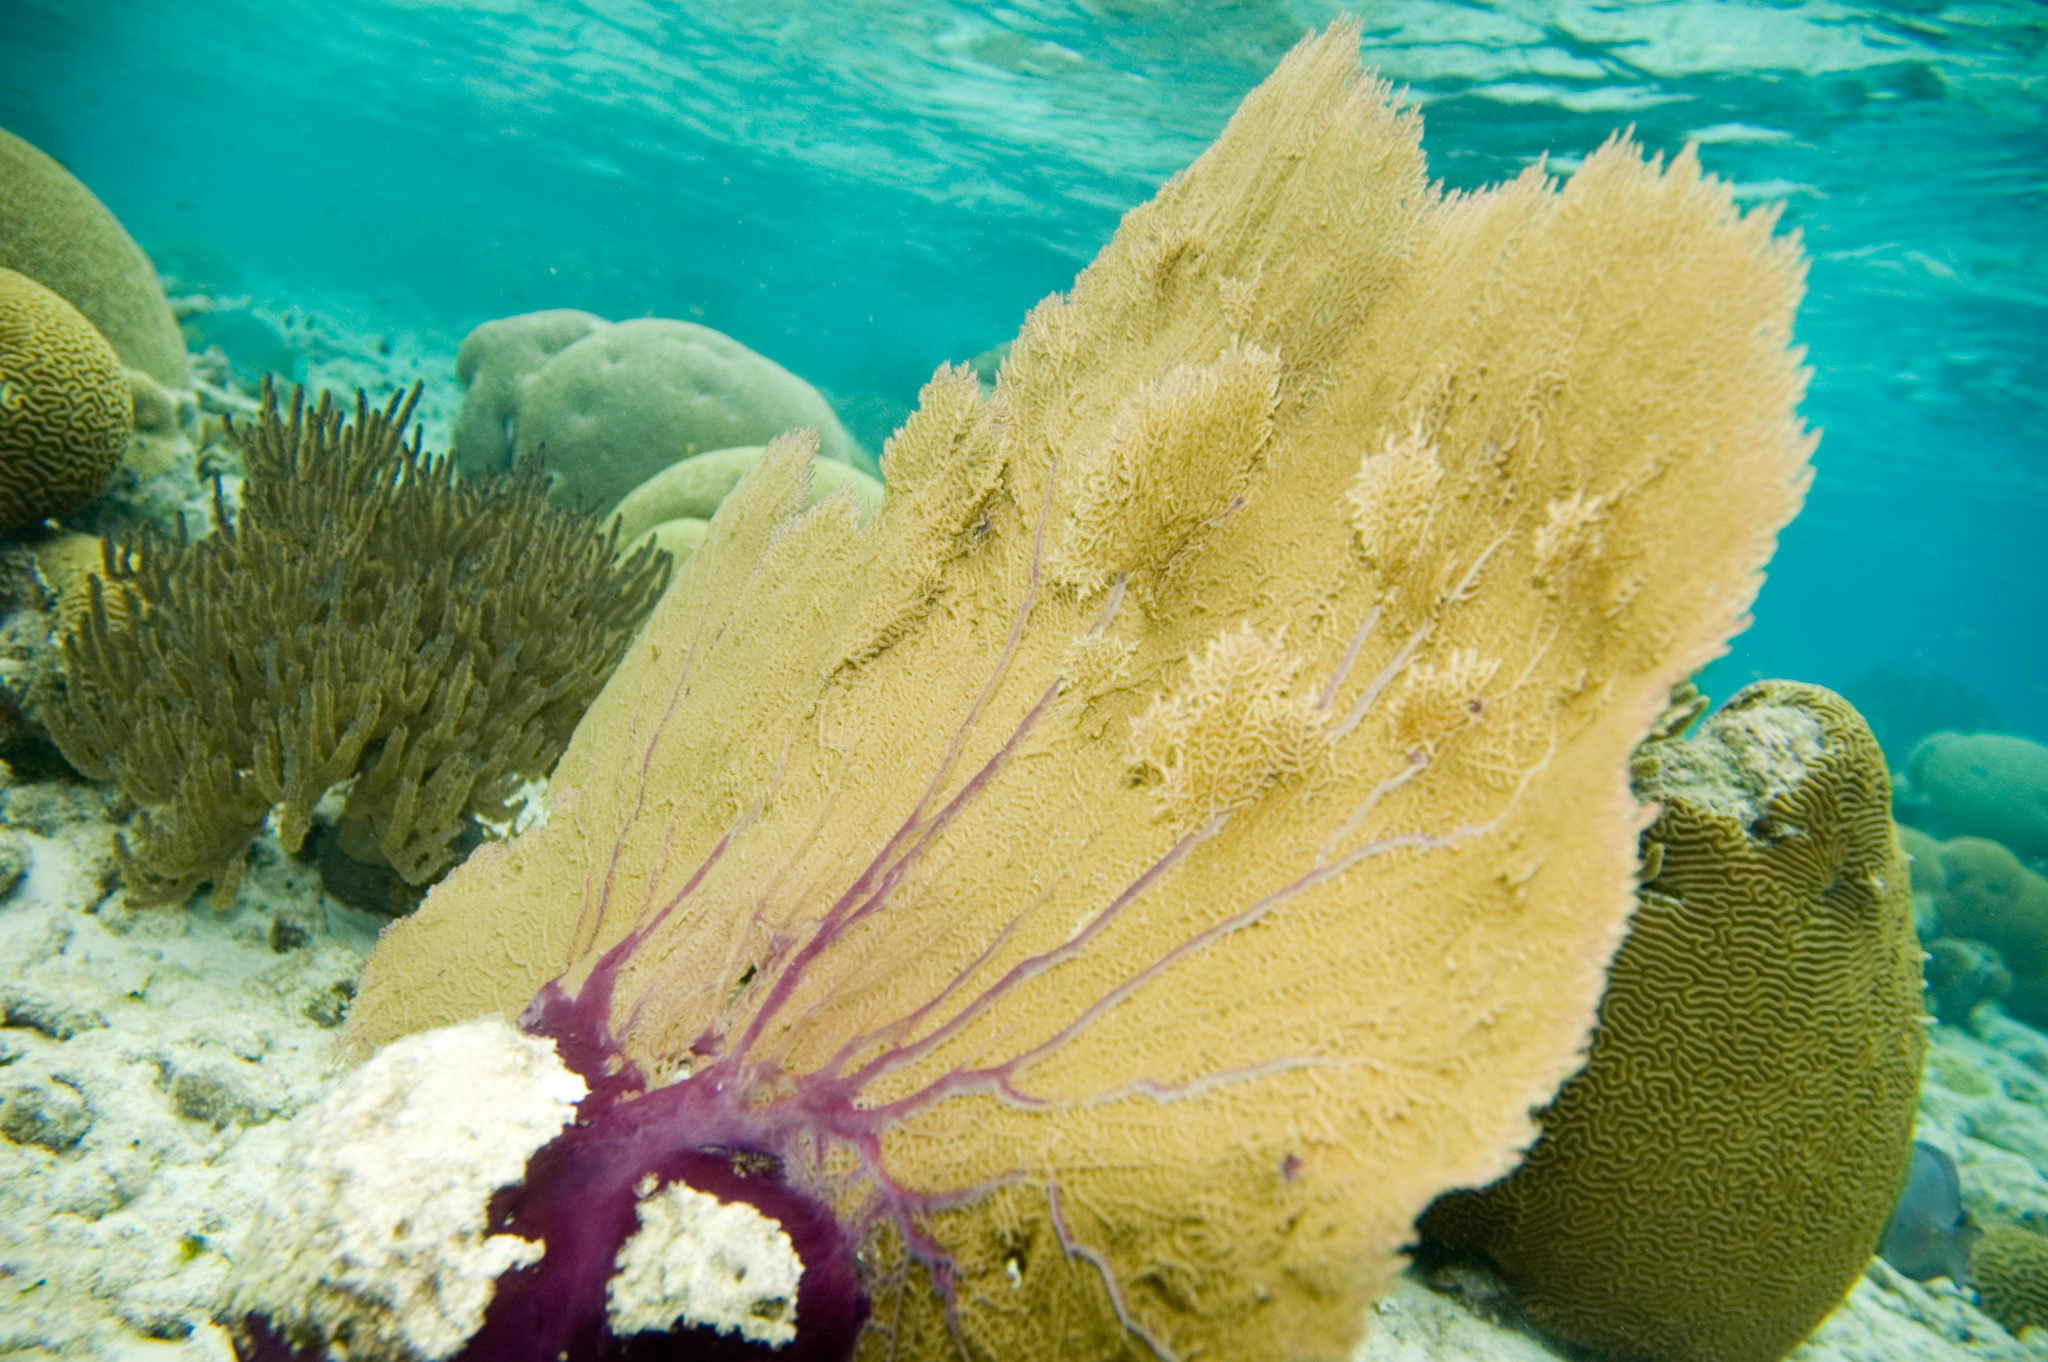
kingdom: Animalia
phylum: Cnidaria
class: Anthozoa
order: Malacalcyonacea
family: Gorgoniidae
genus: Gorgonia
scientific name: Gorgonia ventalina
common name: Common sea fan
